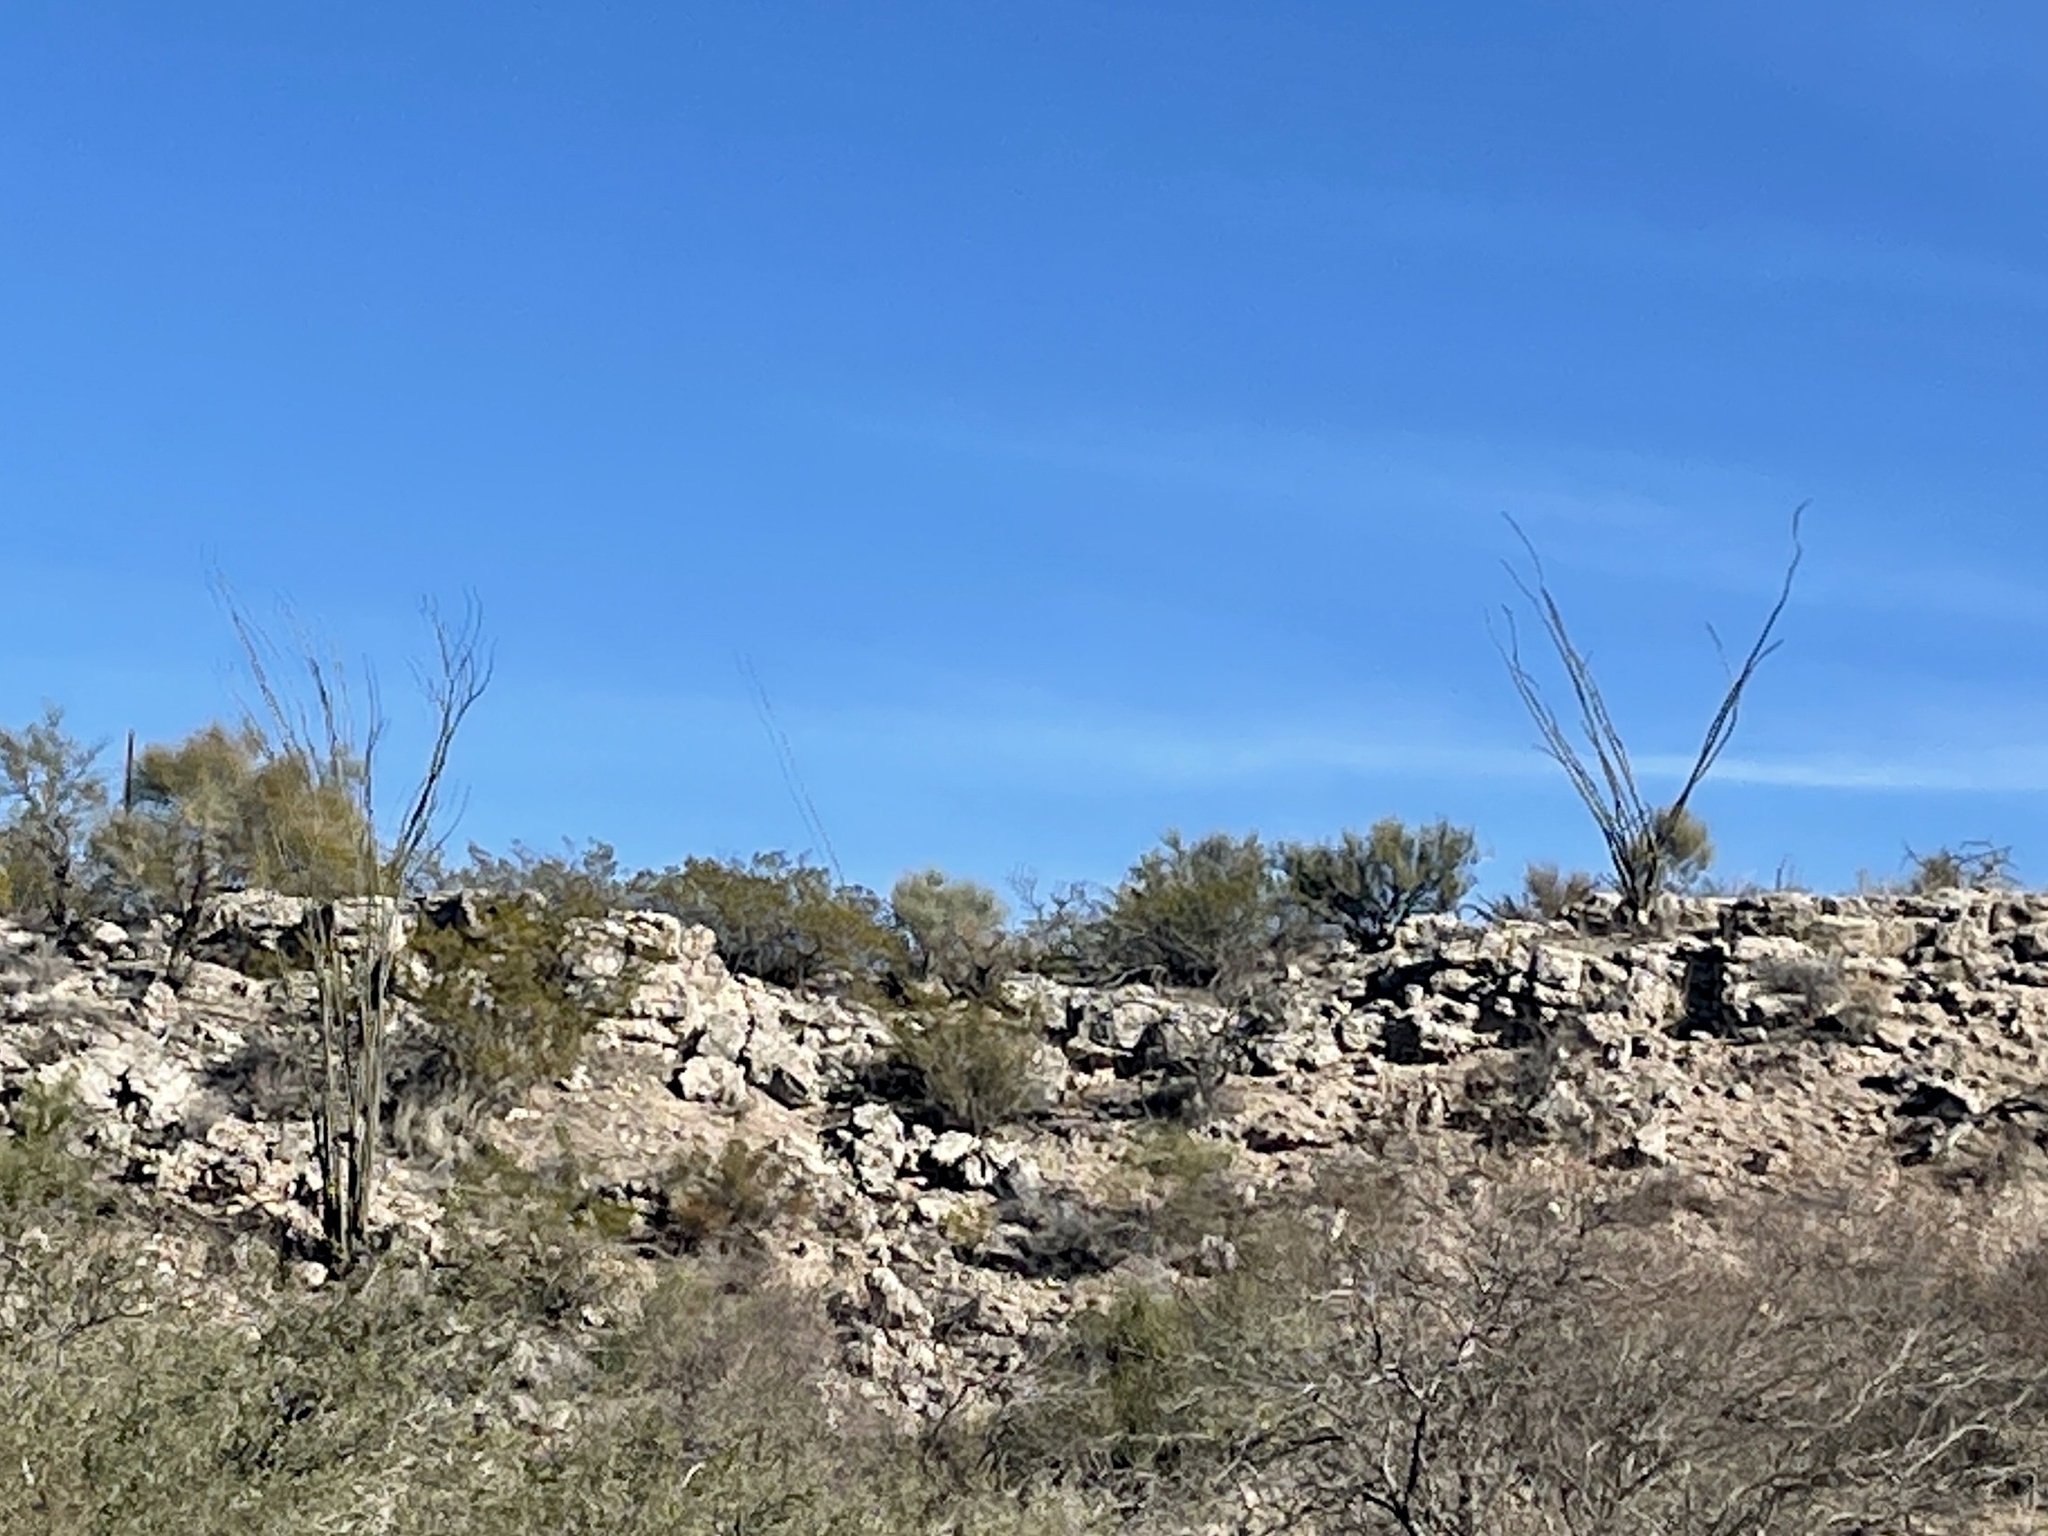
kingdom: Plantae
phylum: Tracheophyta
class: Magnoliopsida
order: Ericales
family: Fouquieriaceae
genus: Fouquieria
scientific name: Fouquieria splendens
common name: Vine-cactus
